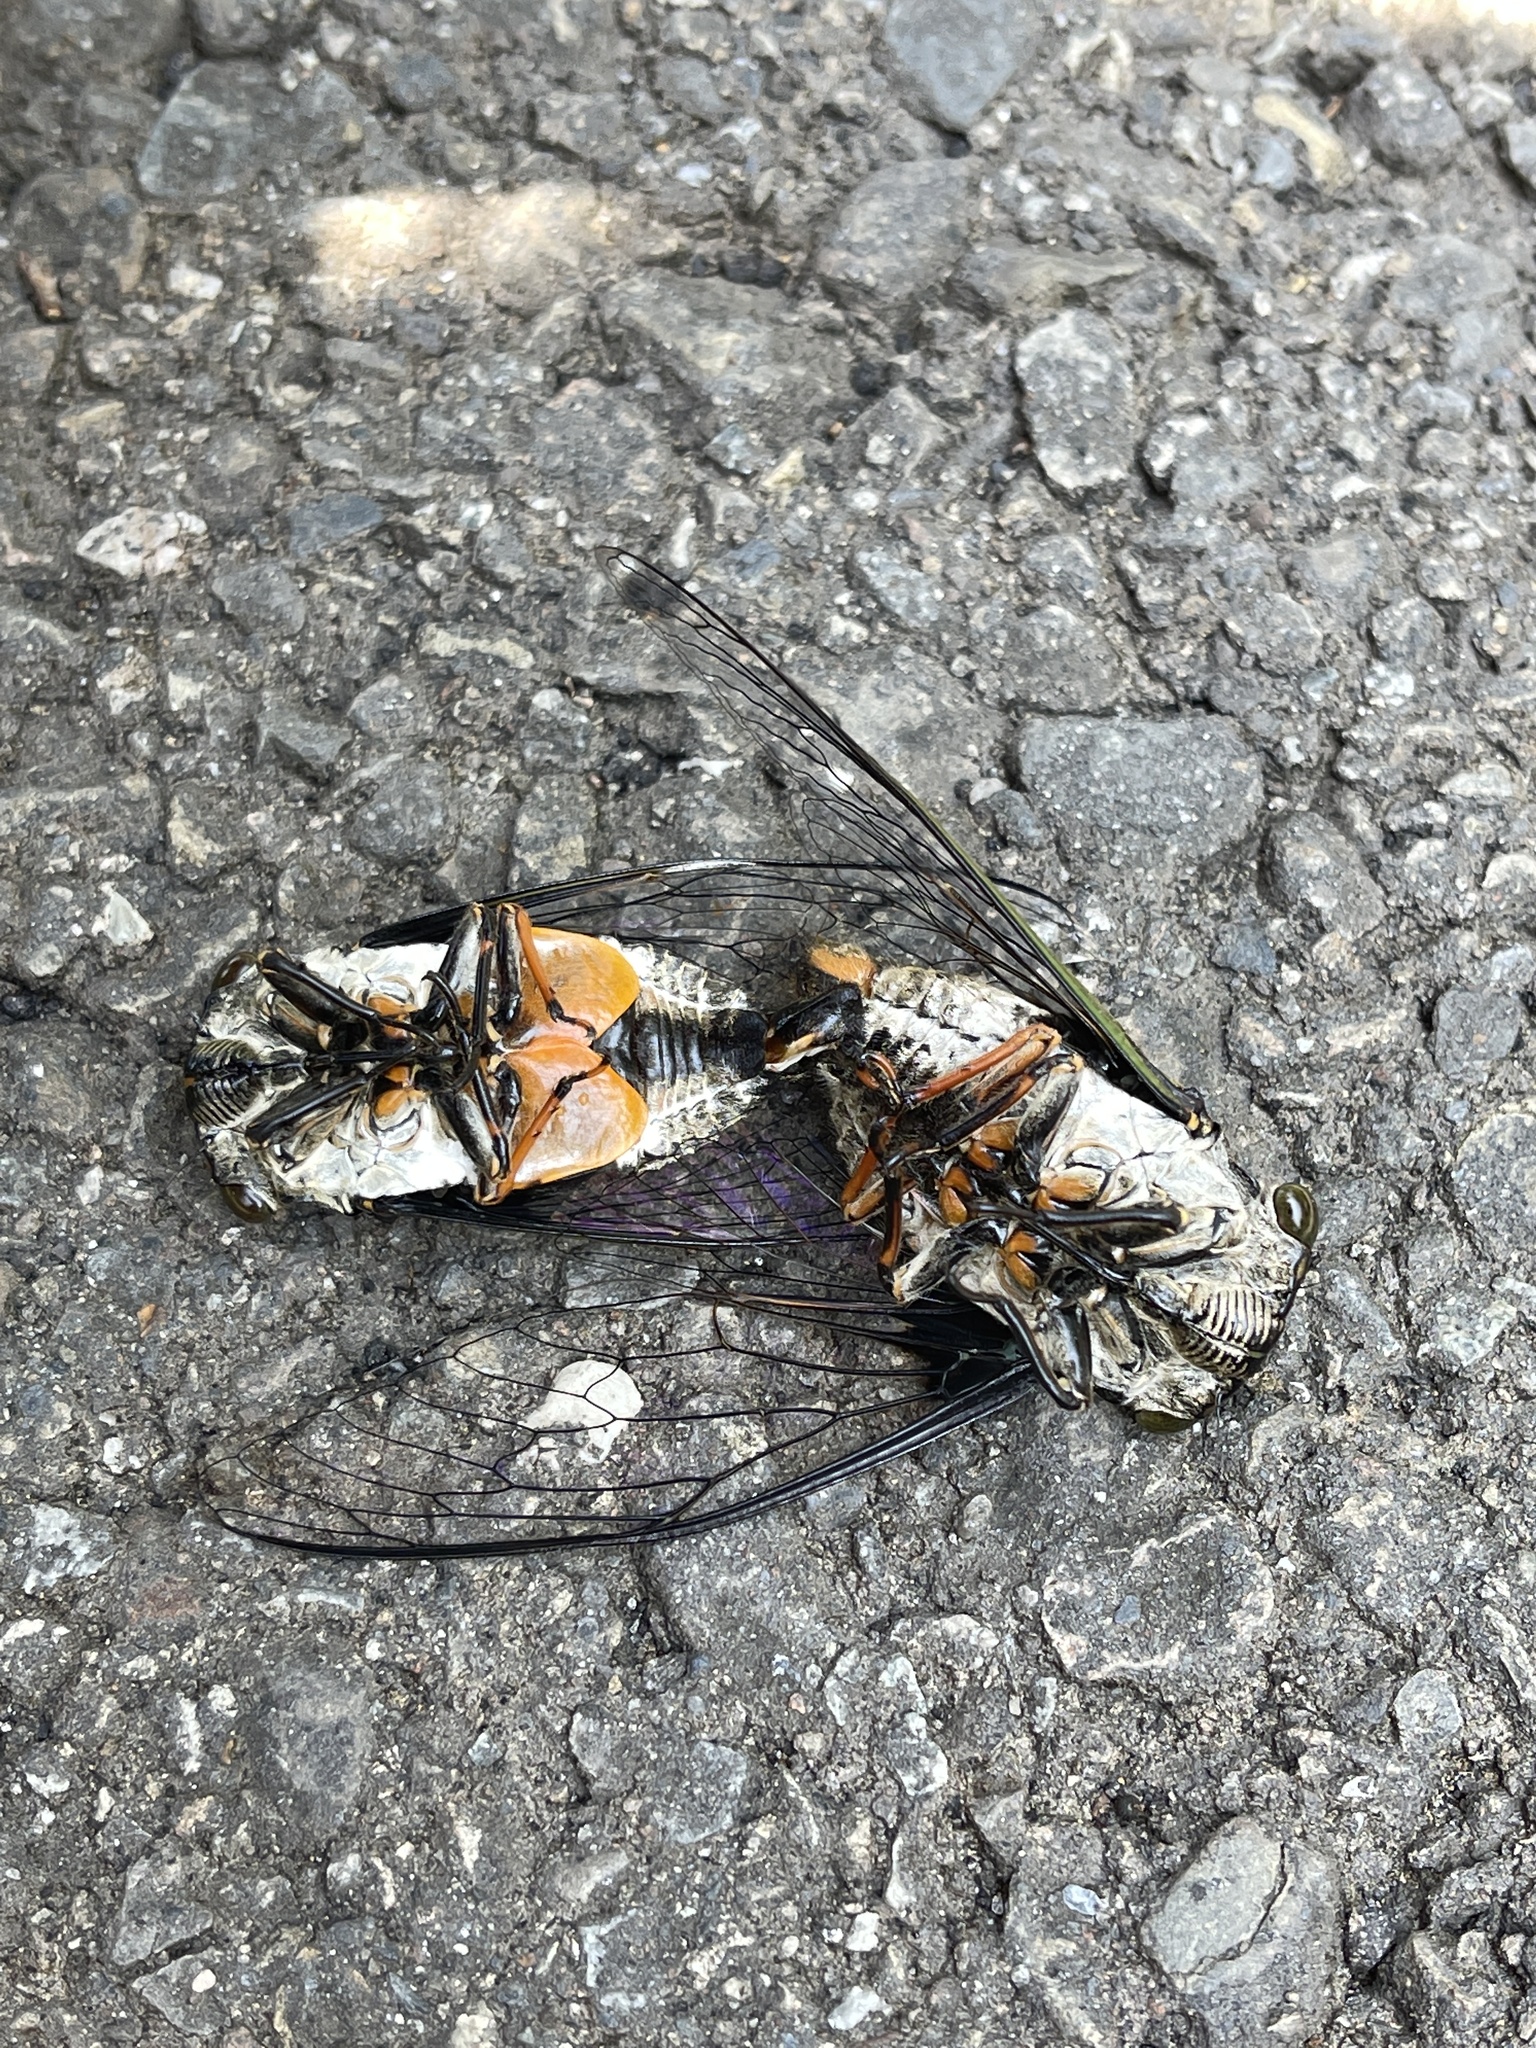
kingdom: Animalia
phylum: Arthropoda
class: Insecta
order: Hemiptera
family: Cicadidae
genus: Cryptotympana
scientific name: Cryptotympana takasagona
